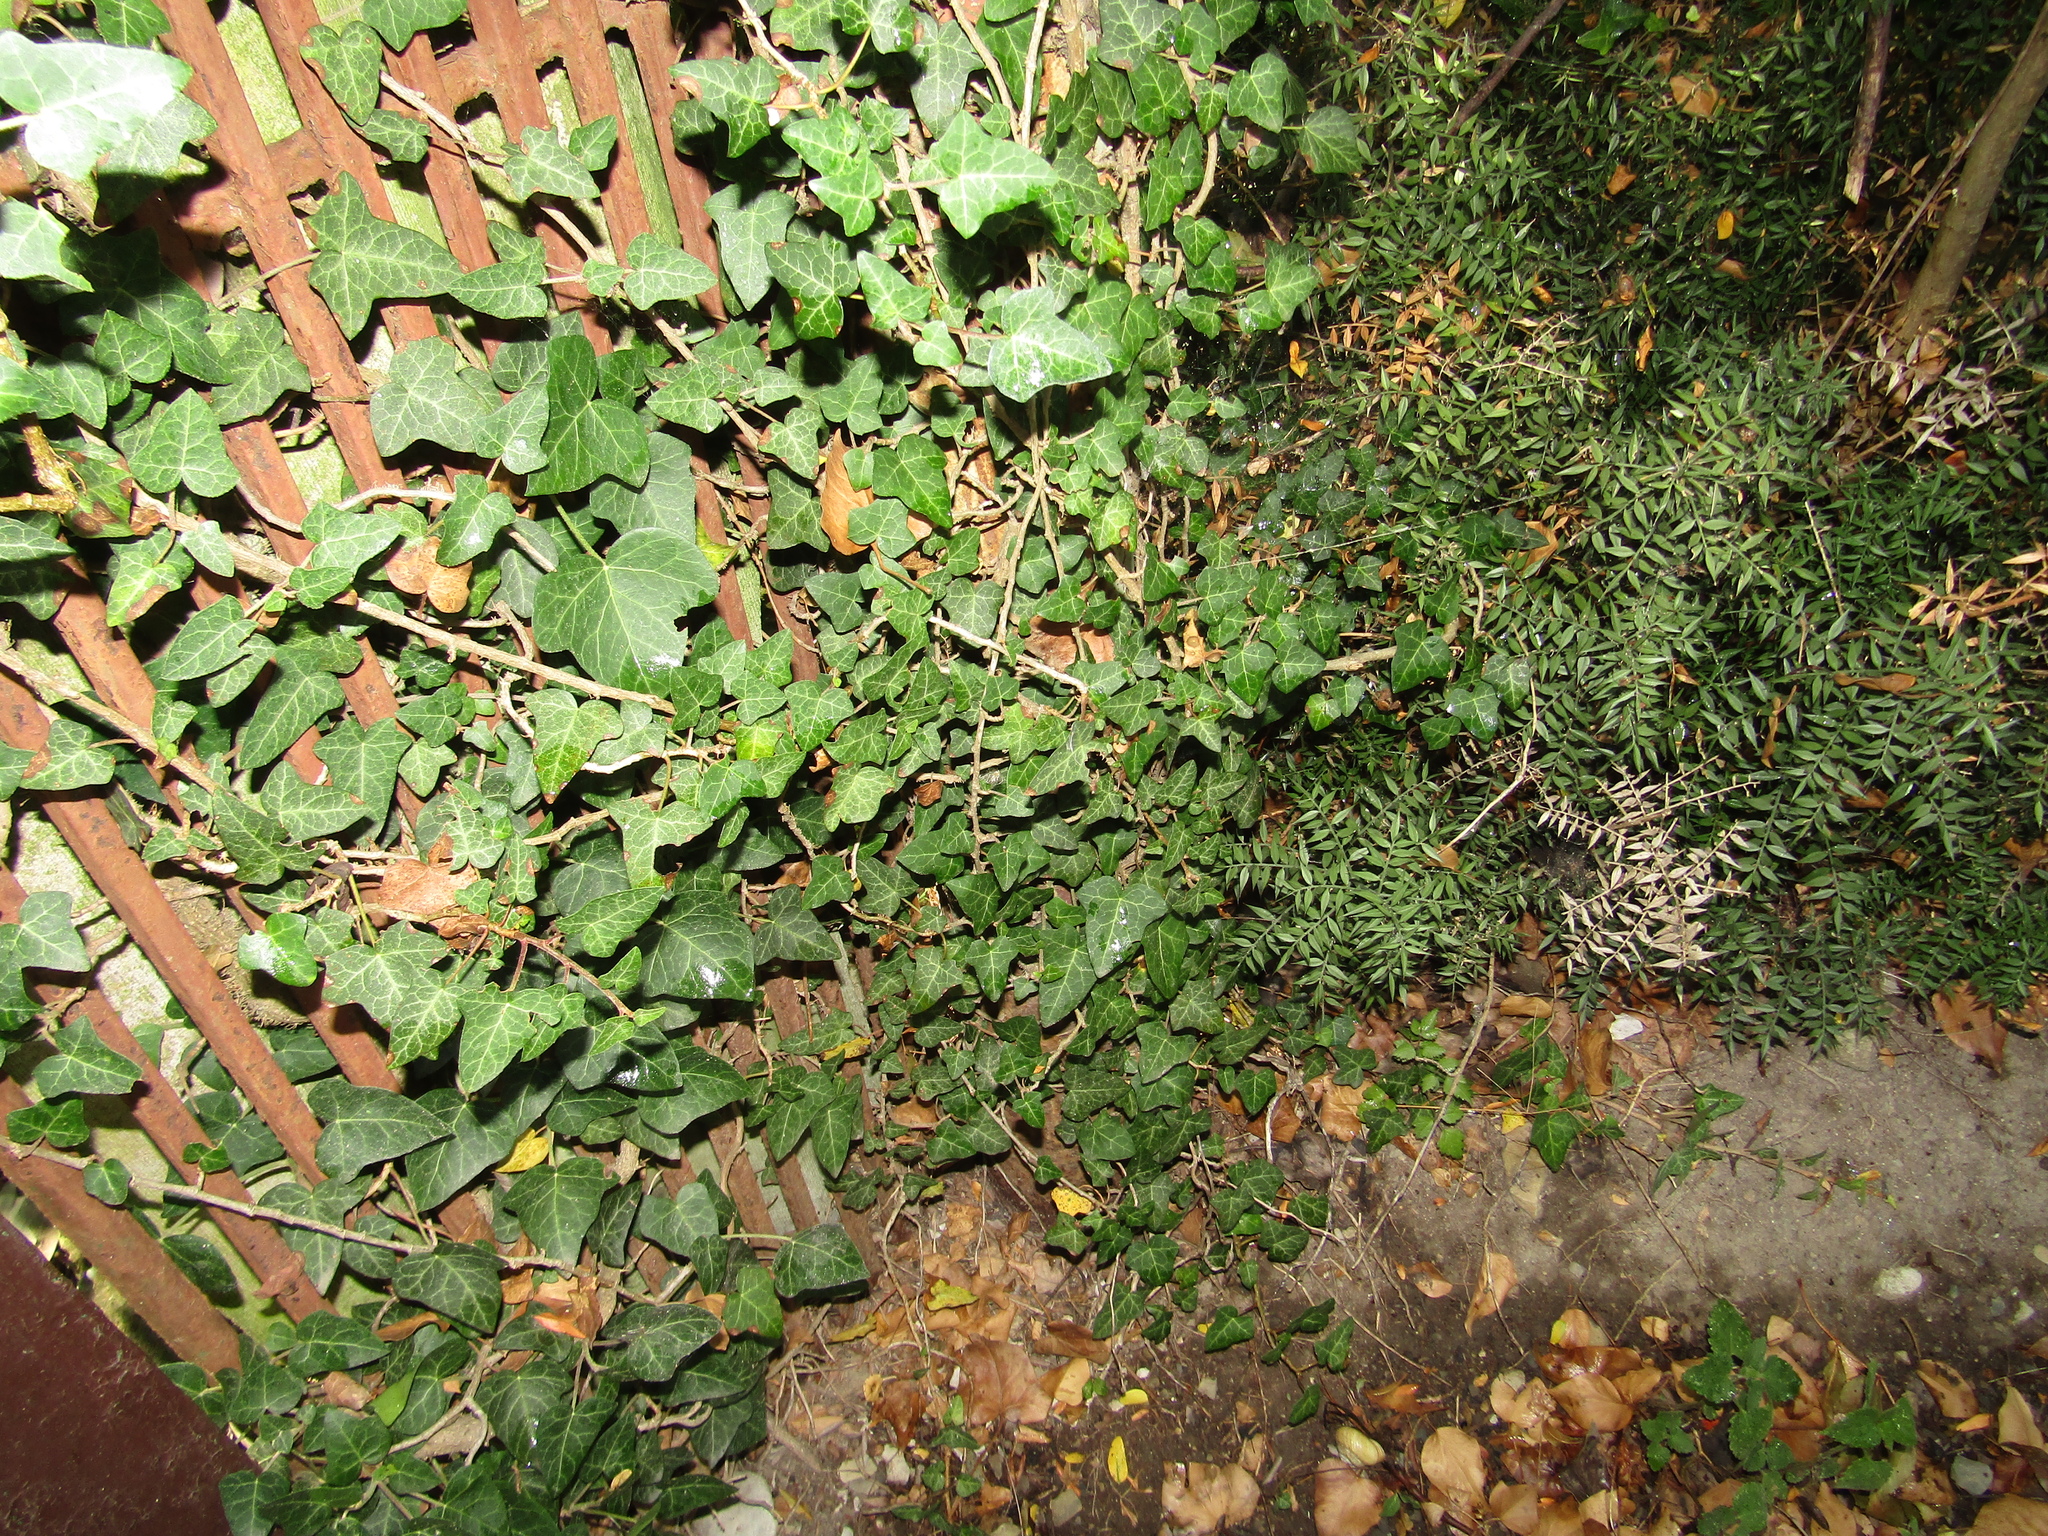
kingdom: Plantae
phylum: Tracheophyta
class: Magnoliopsida
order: Apiales
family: Araliaceae
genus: Hedera
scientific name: Hedera helix
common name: Ivy
